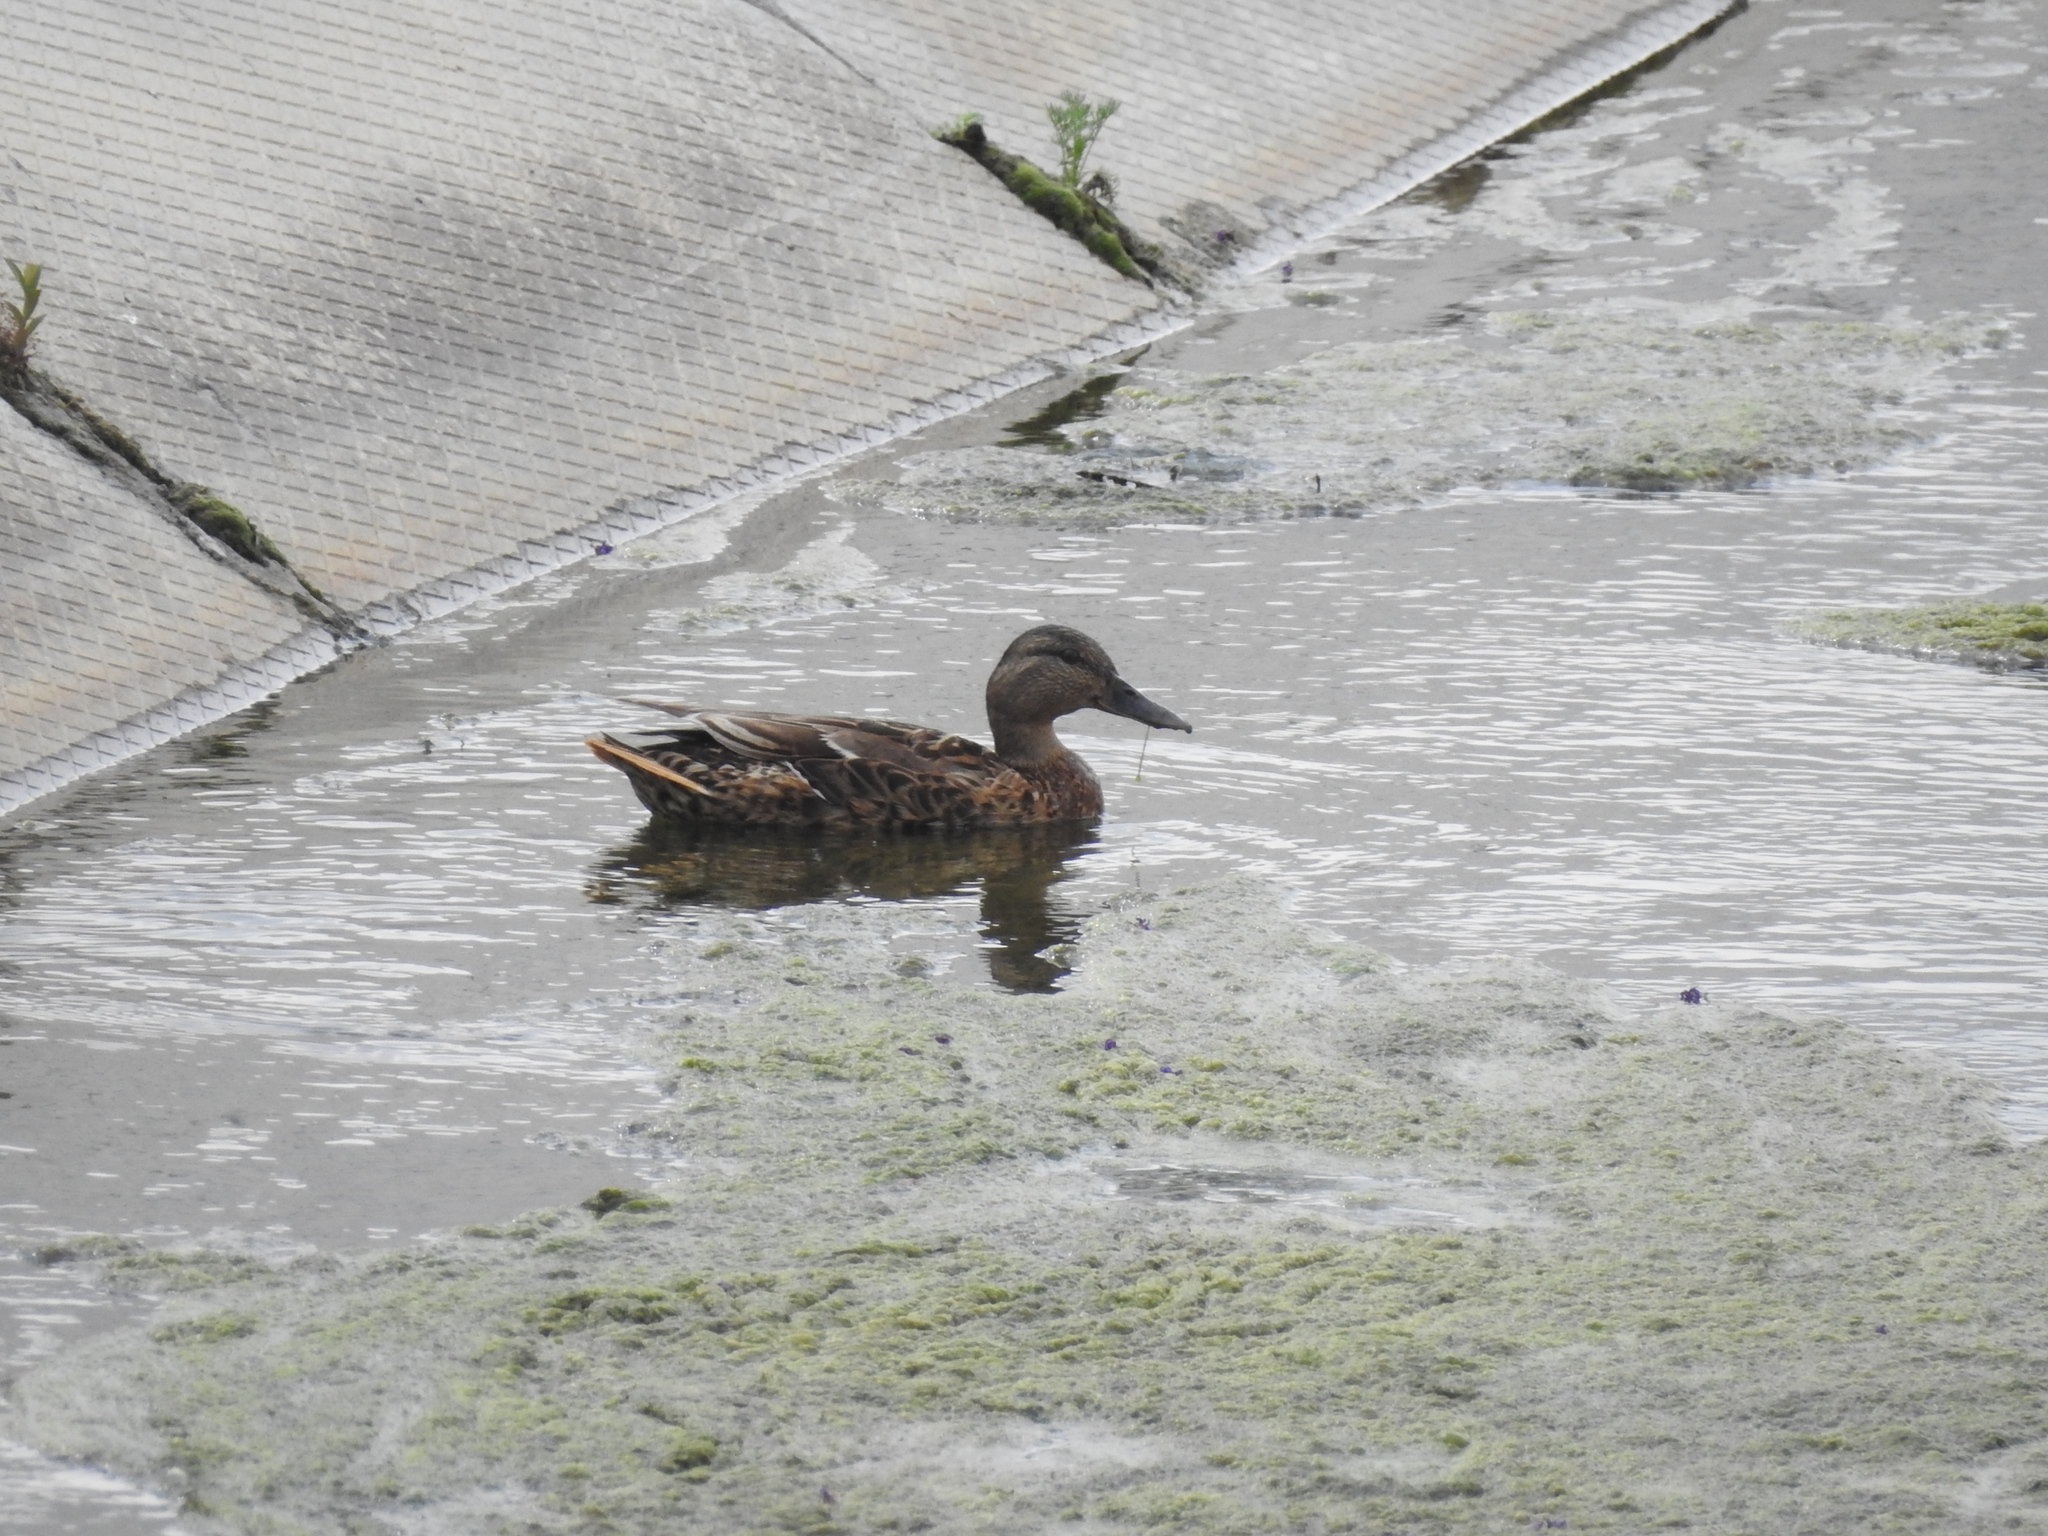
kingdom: Animalia
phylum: Chordata
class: Aves
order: Anseriformes
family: Anatidae
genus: Anas
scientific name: Anas platyrhynchos
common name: Mallard
